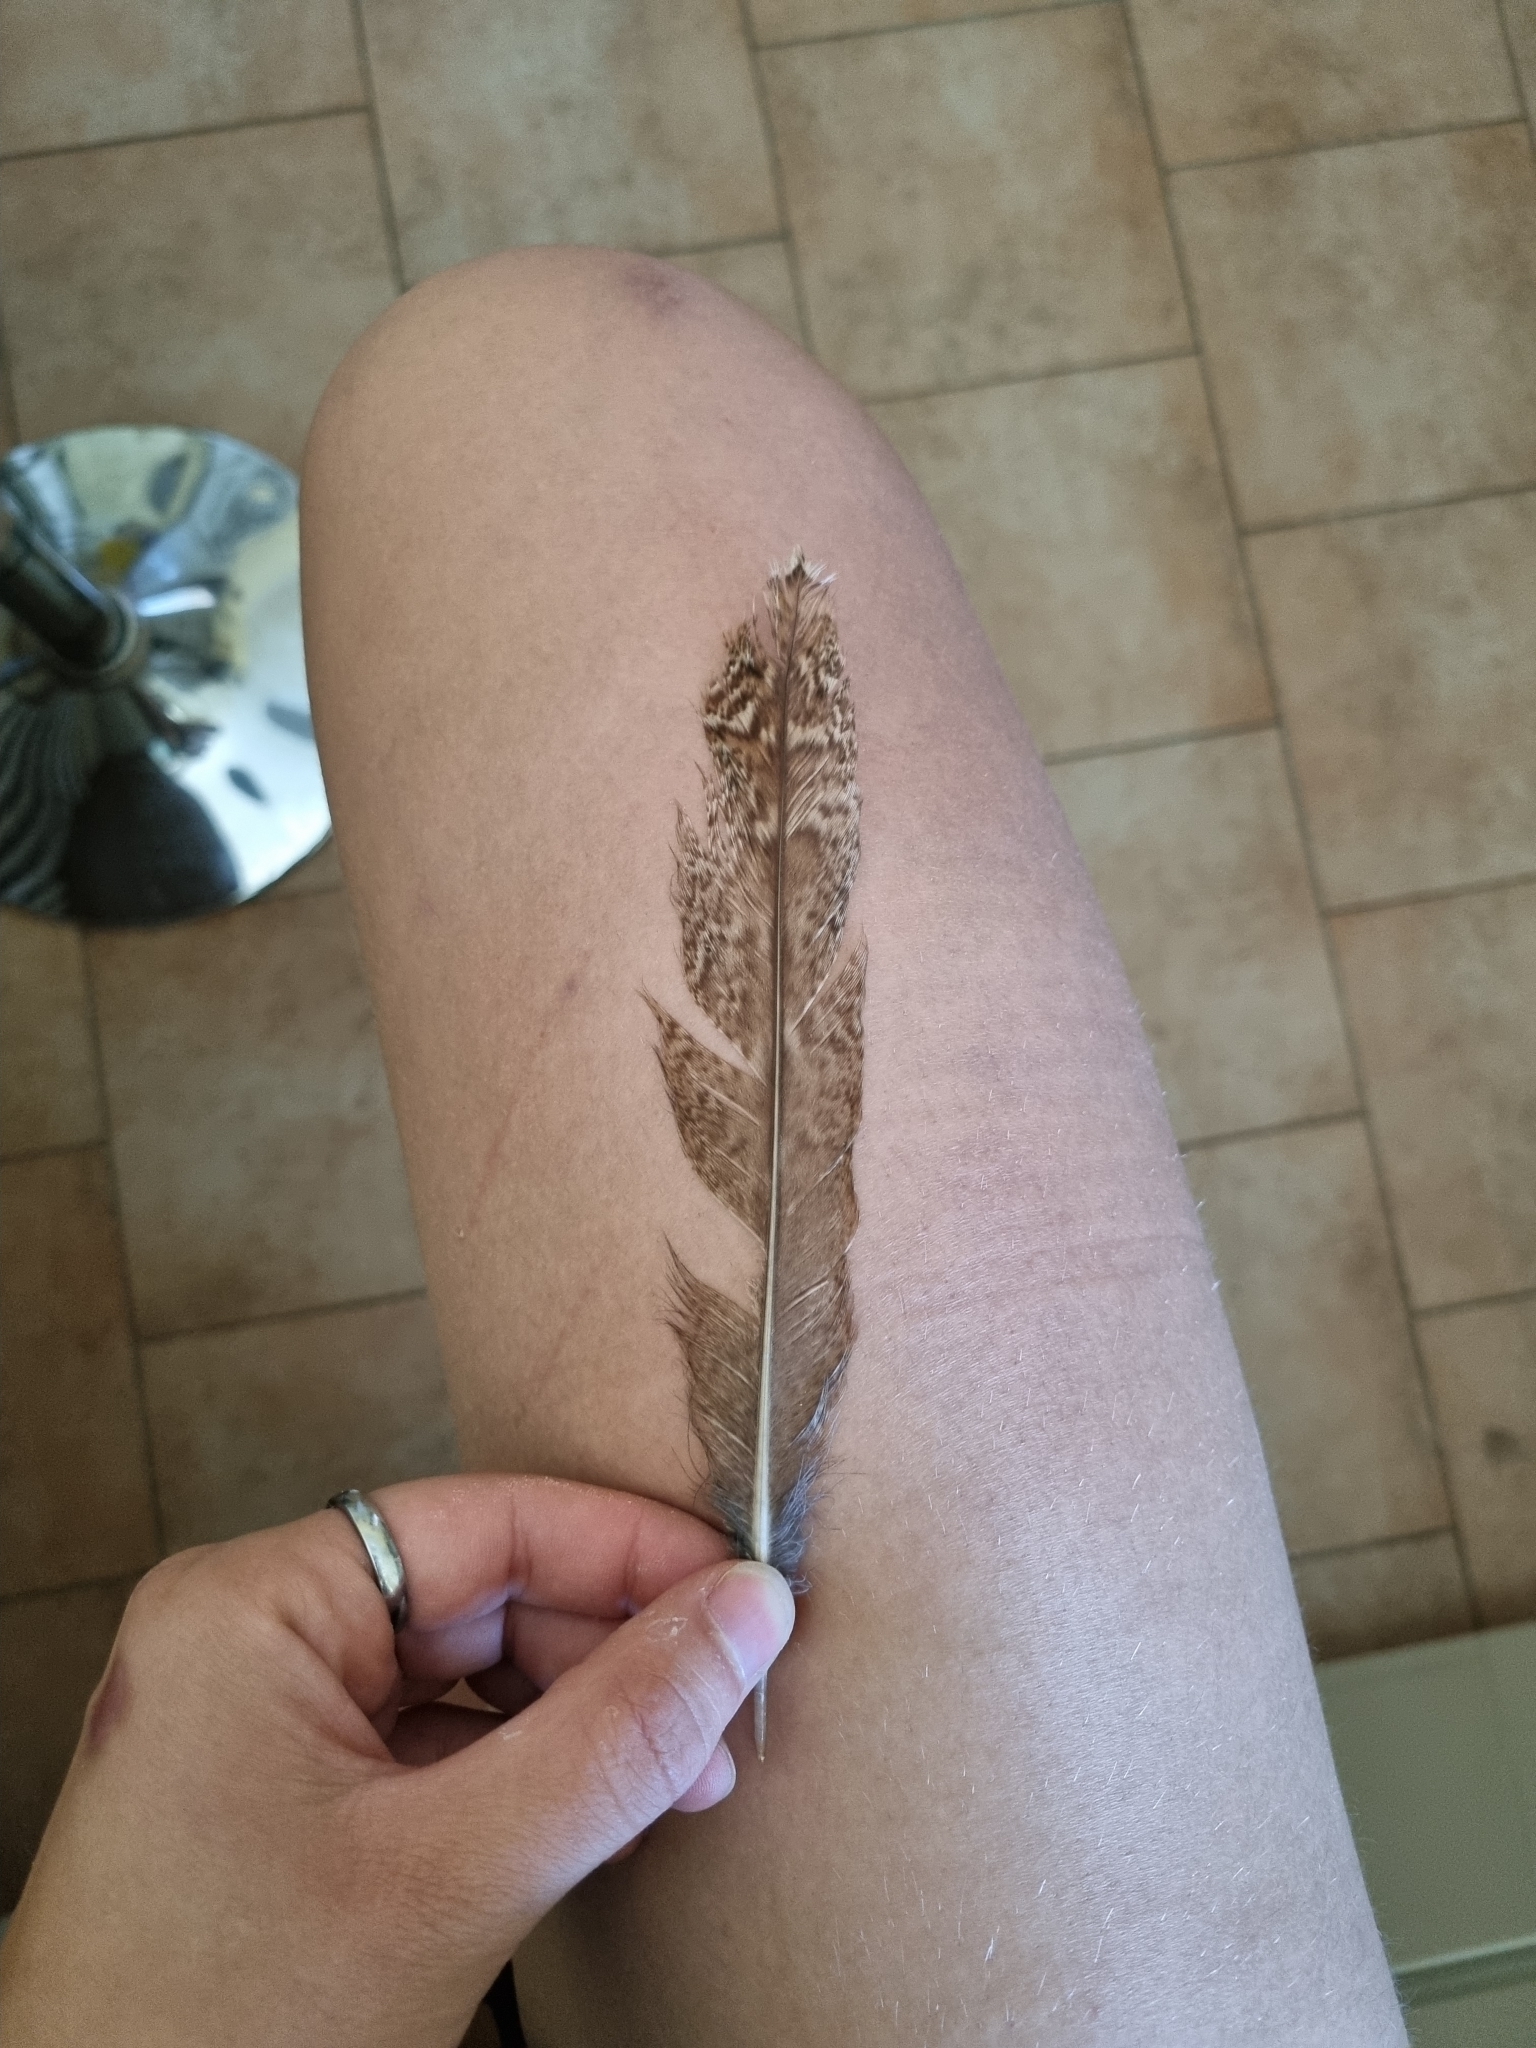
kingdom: Animalia
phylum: Chordata
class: Aves
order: Strigiformes
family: Strigidae
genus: Strix
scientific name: Strix aluco
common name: Tawny owl
